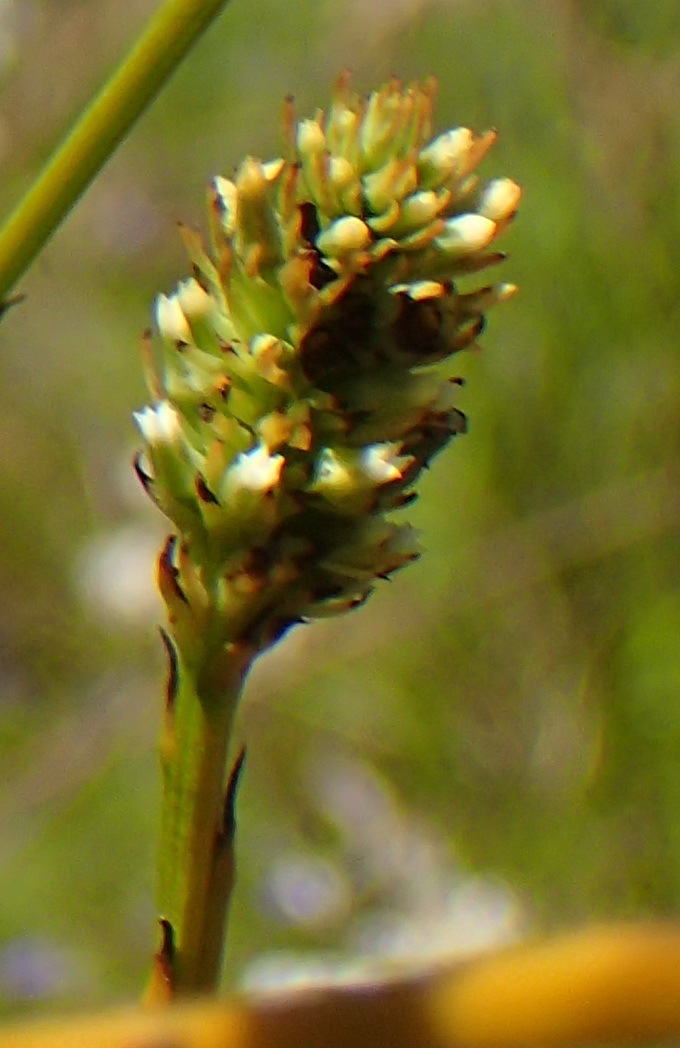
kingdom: Plantae
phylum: Tracheophyta
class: Magnoliopsida
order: Santalales
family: Thesiaceae
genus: Thesium
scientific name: Thesium aggregatum
